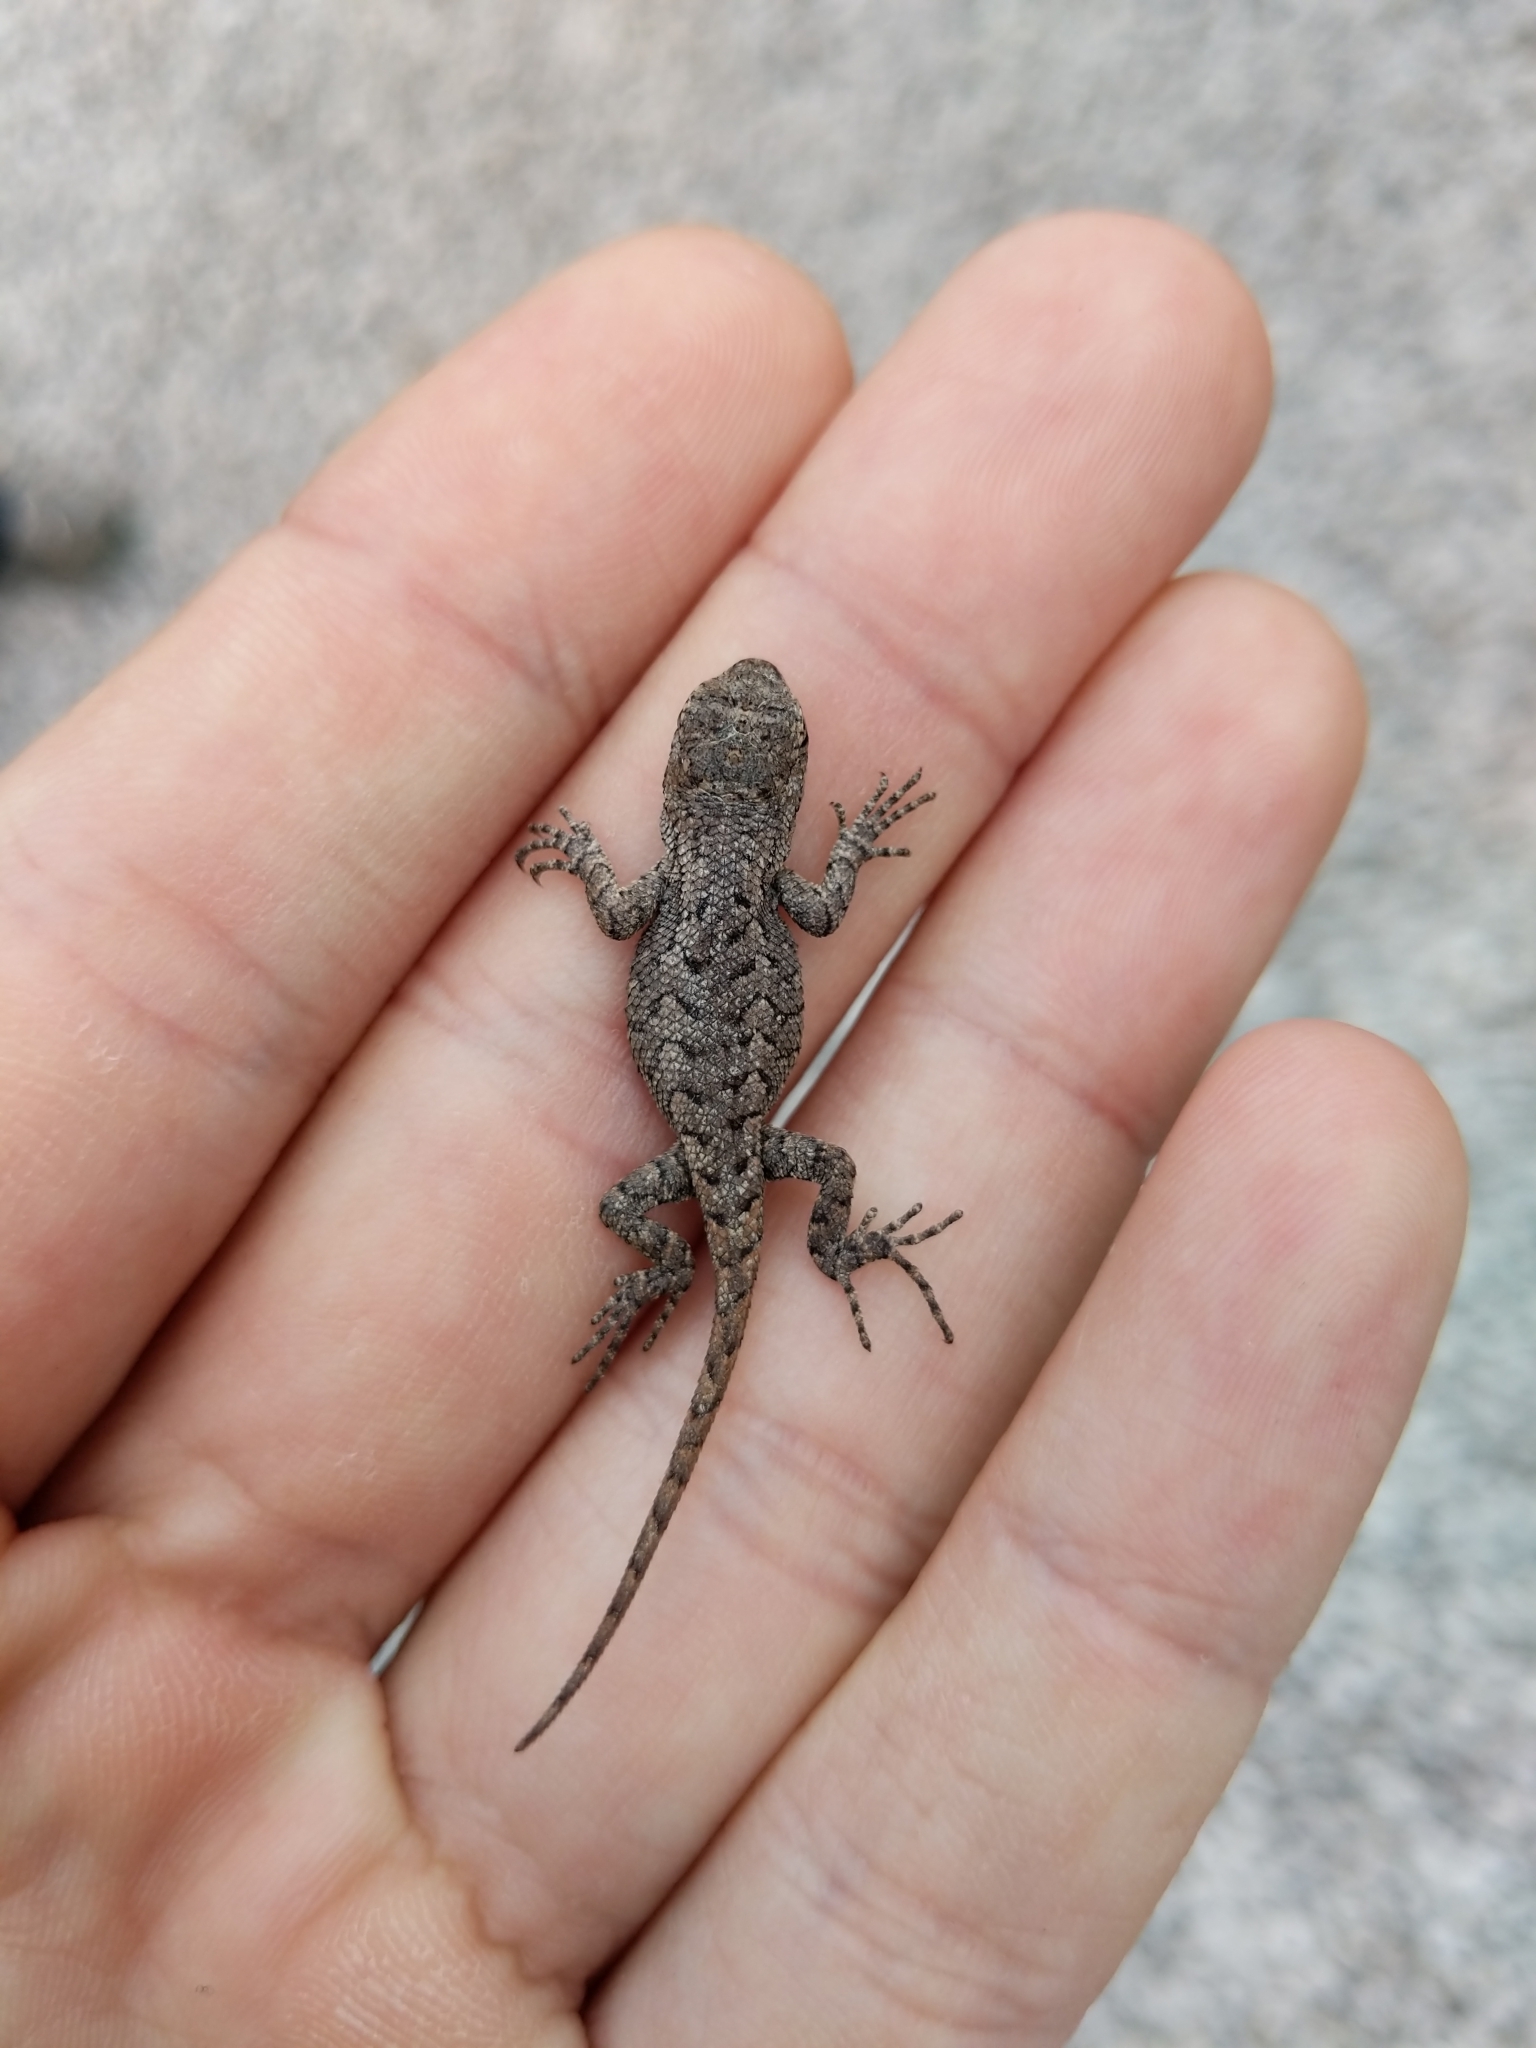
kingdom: Animalia
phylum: Chordata
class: Squamata
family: Phrynosomatidae
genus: Sceloporus
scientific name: Sceloporus undulatus
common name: Eastern fence lizard
